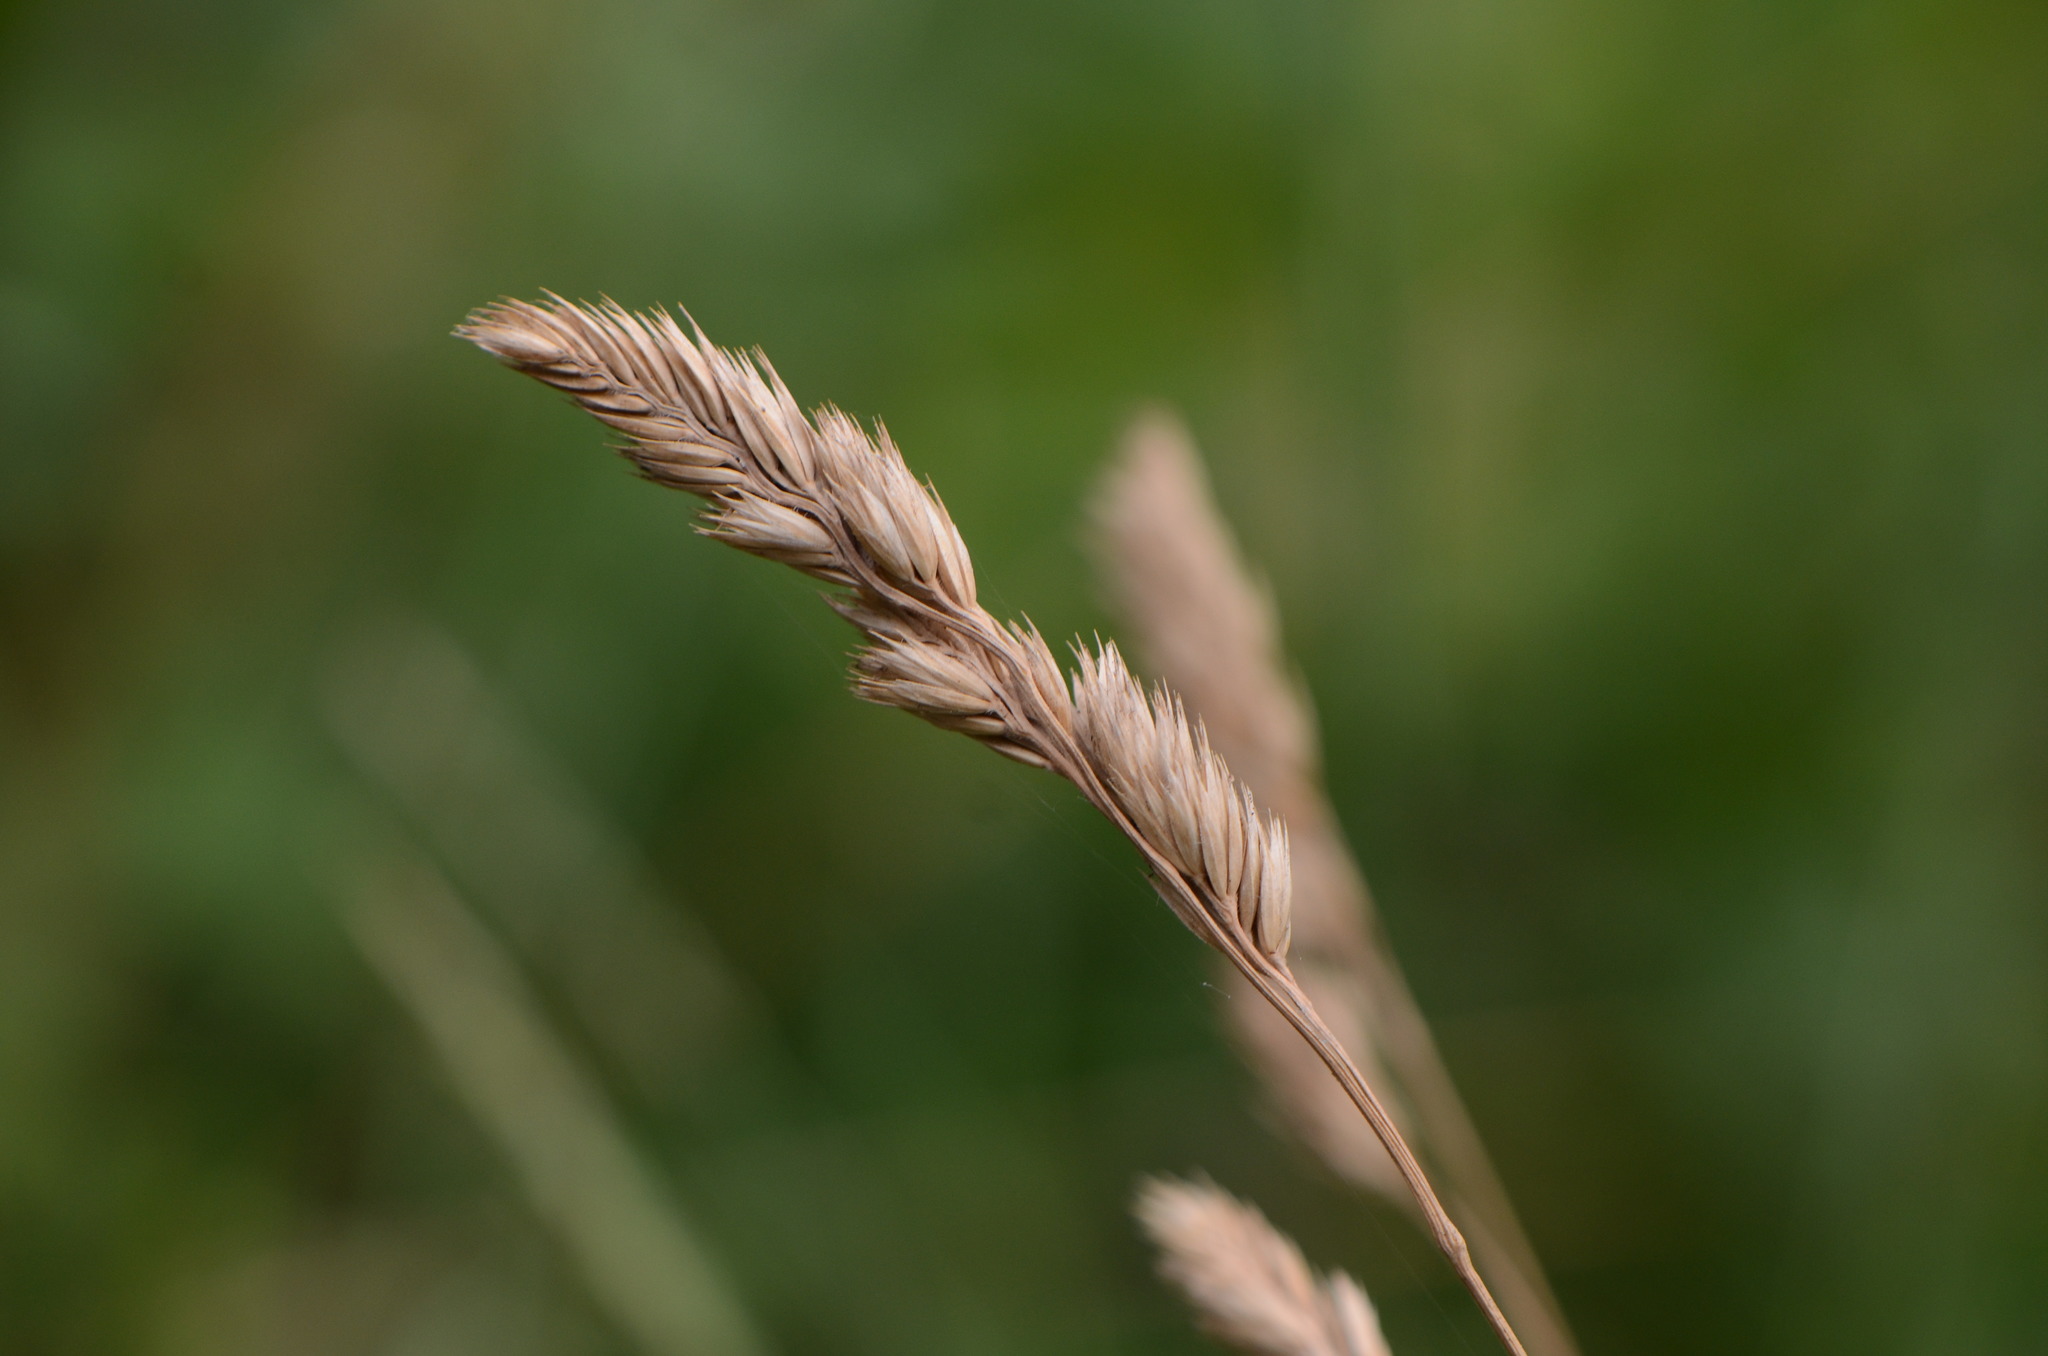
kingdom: Plantae
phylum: Tracheophyta
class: Liliopsida
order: Poales
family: Poaceae
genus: Dactylis
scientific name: Dactylis glomerata
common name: Orchardgrass
